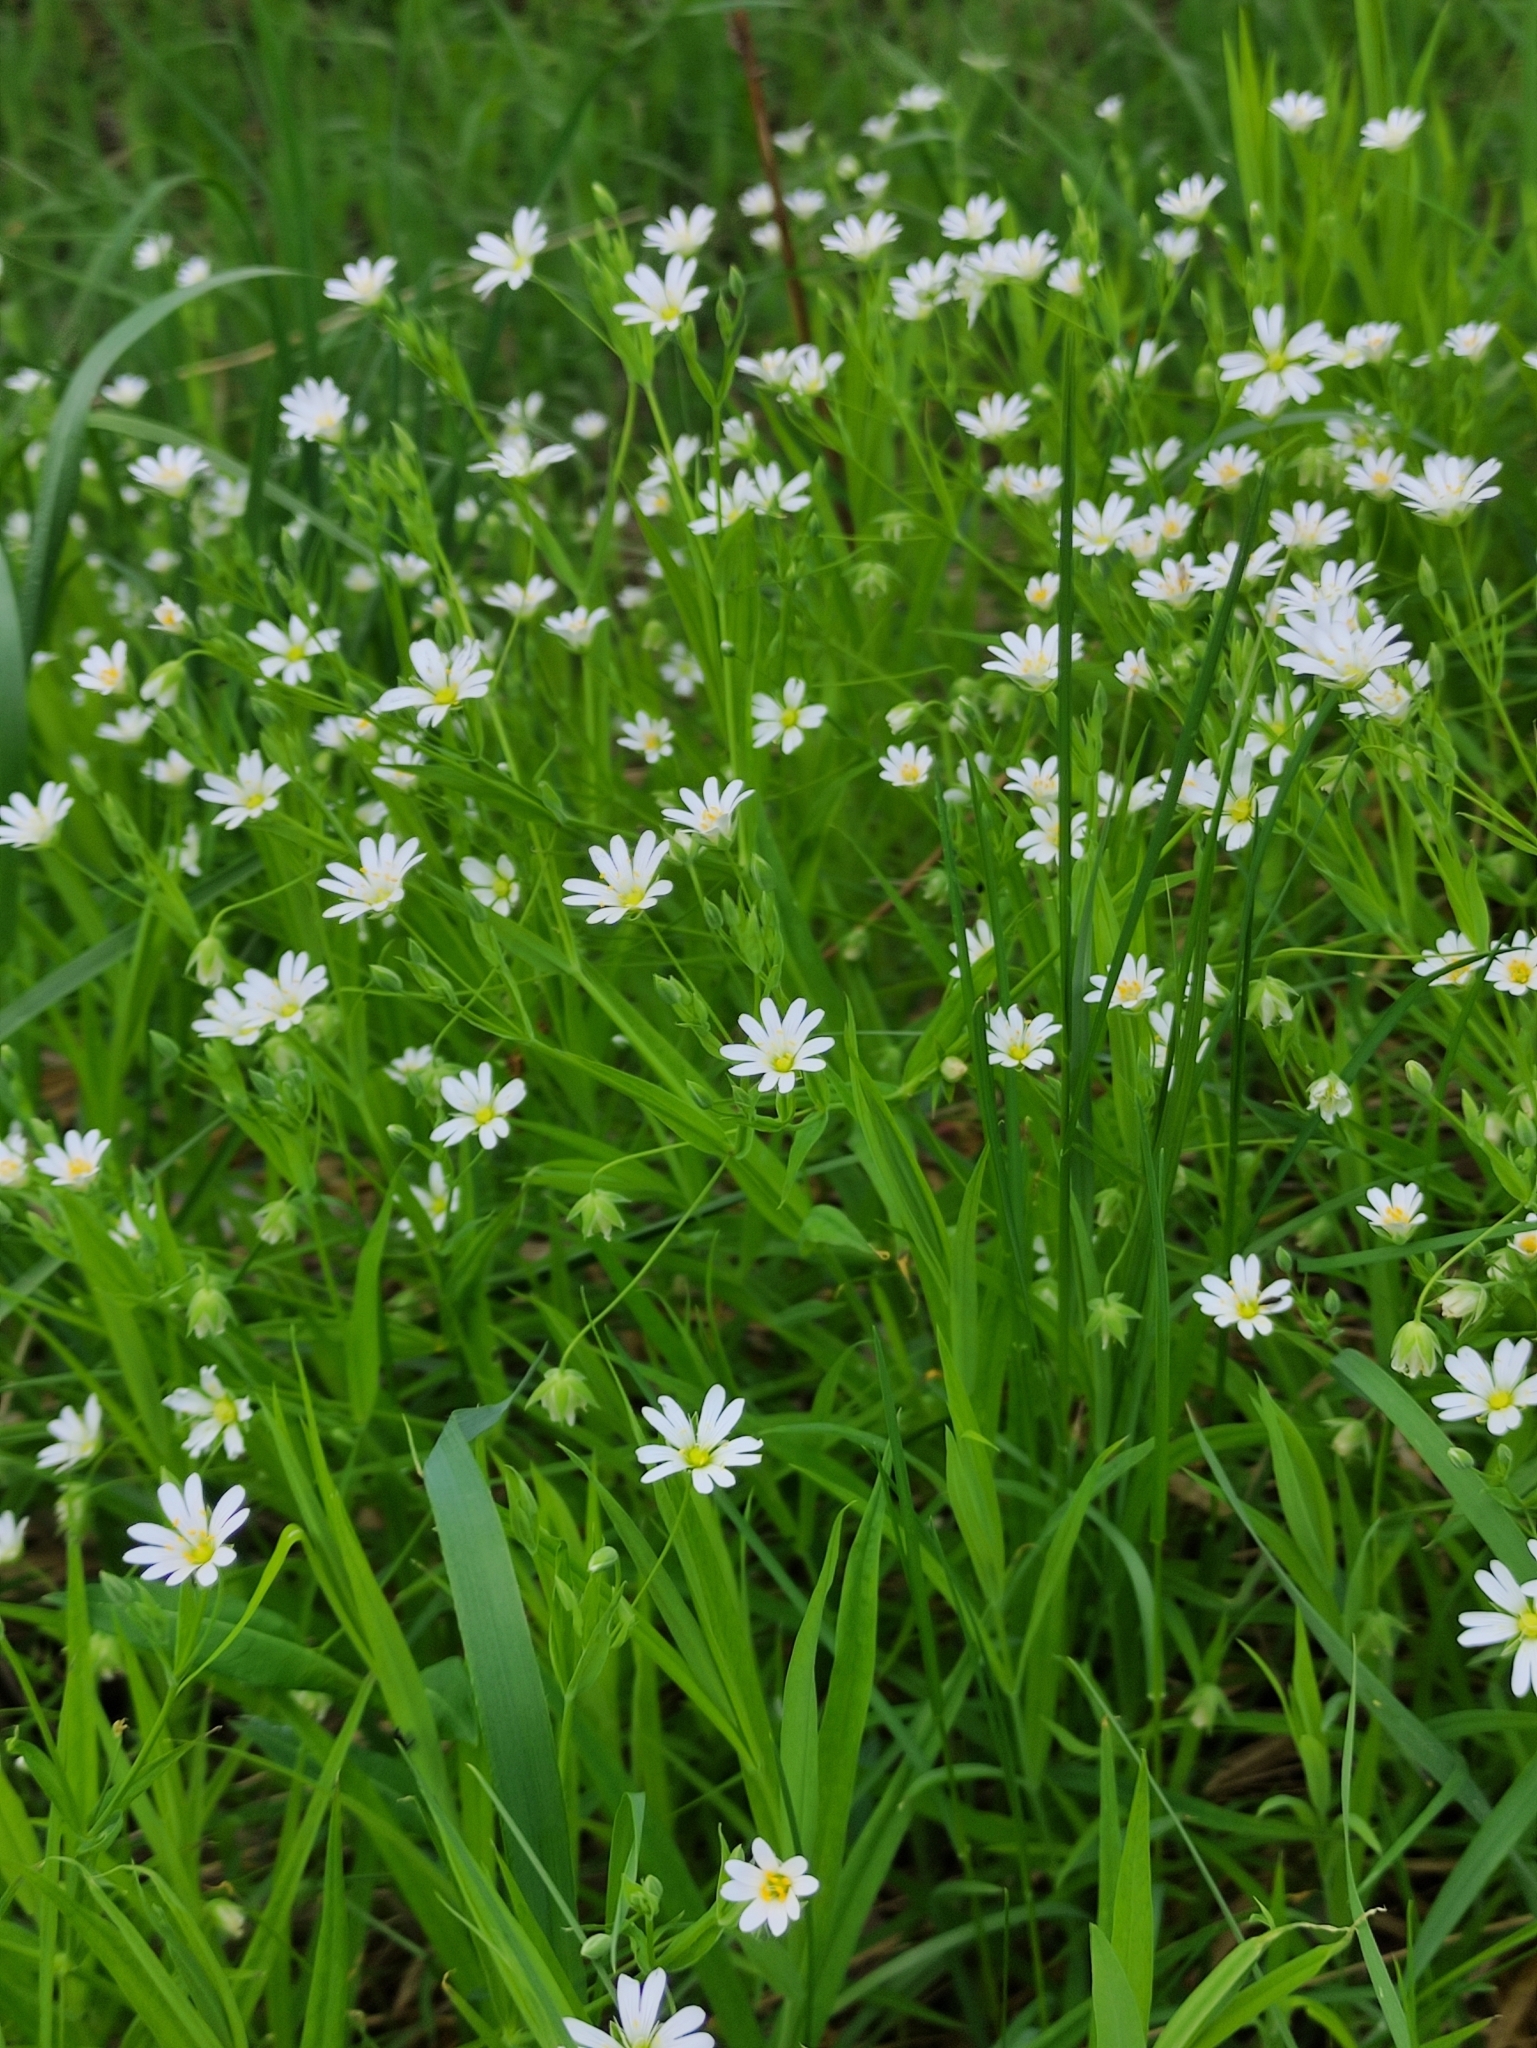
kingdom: Plantae
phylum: Tracheophyta
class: Magnoliopsida
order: Caryophyllales
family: Caryophyllaceae
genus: Rabelera
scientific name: Rabelera holostea
